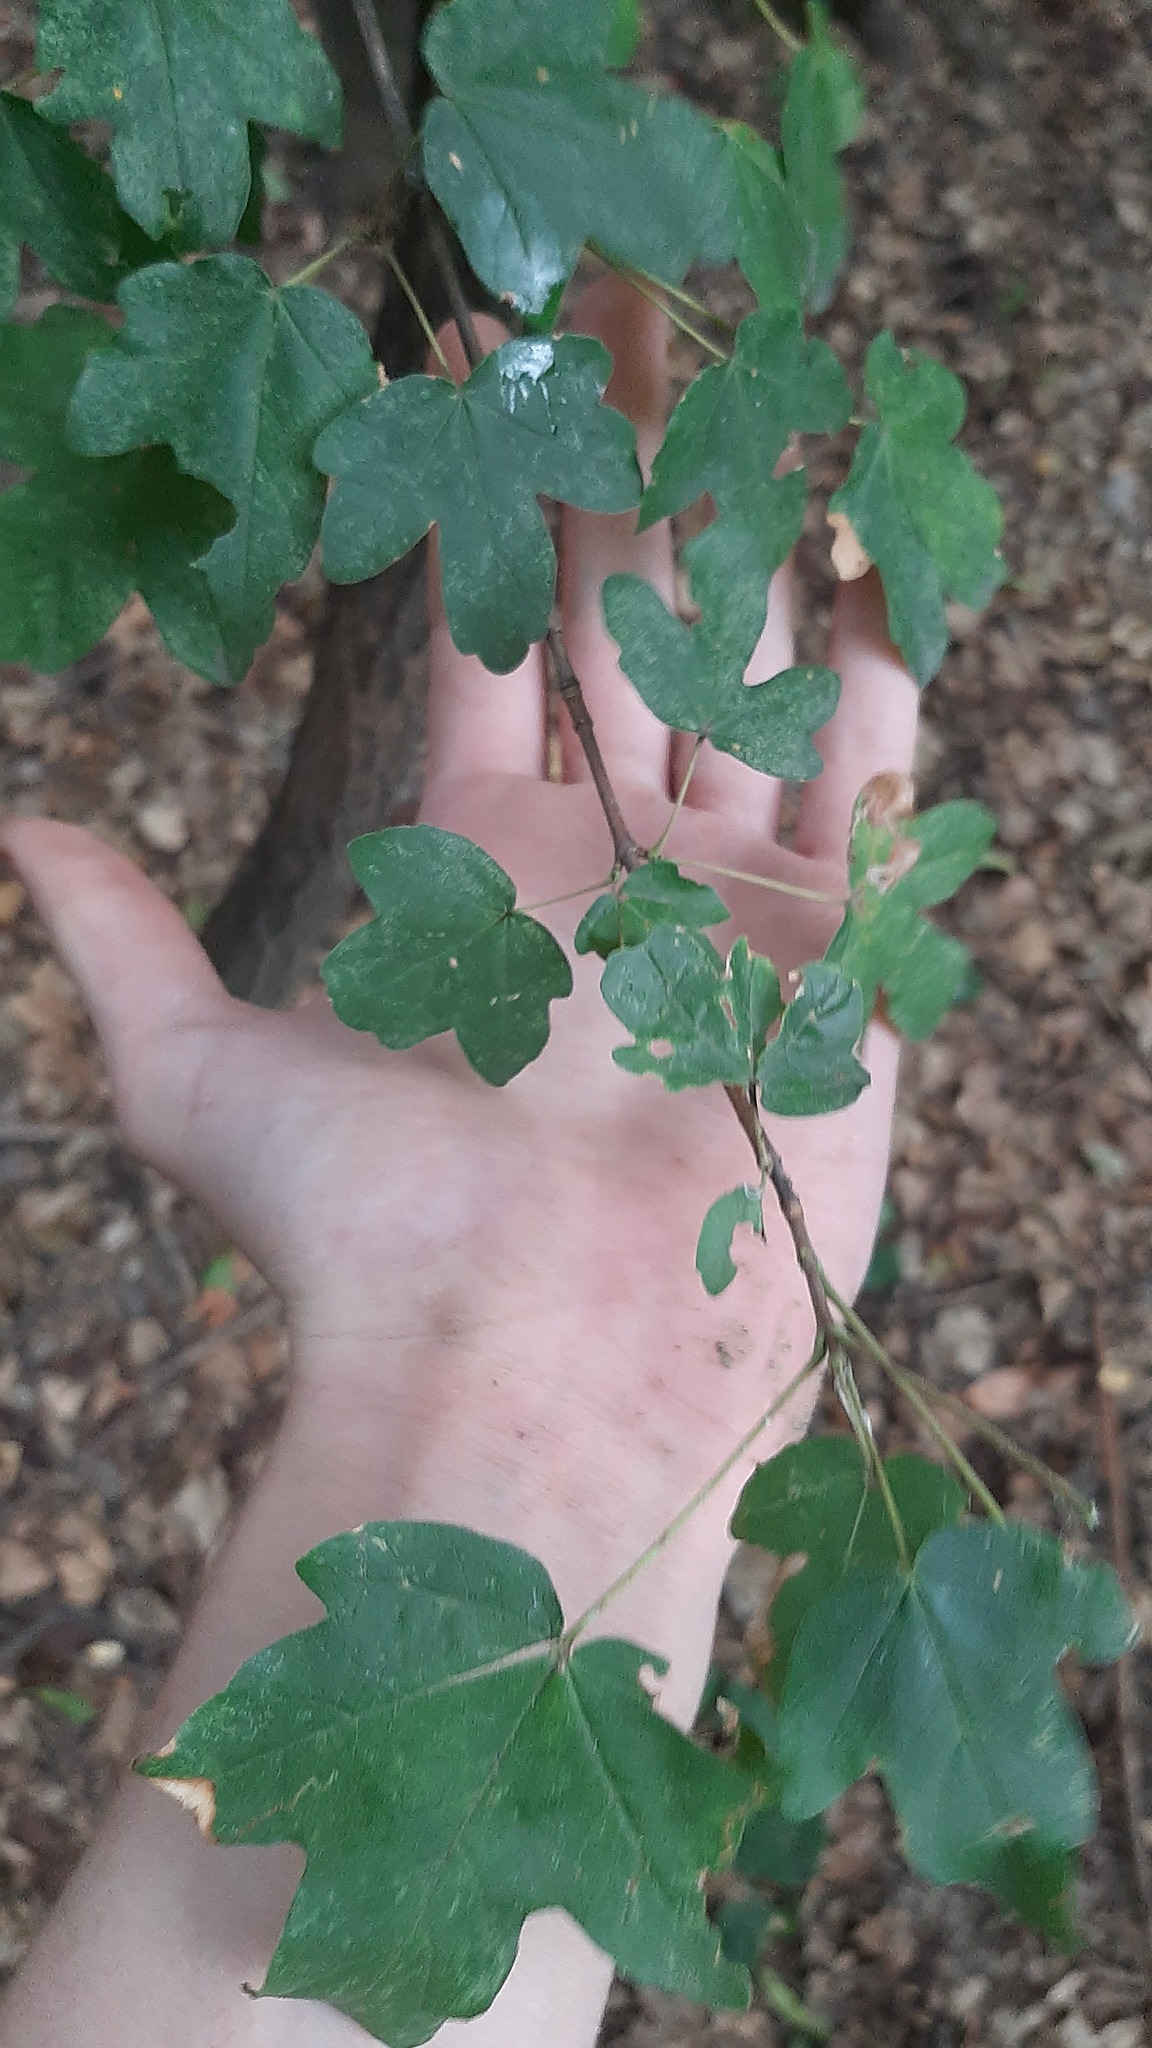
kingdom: Plantae
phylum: Tracheophyta
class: Magnoliopsida
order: Sapindales
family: Sapindaceae
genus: Acer
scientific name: Acer campestre
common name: Field maple
